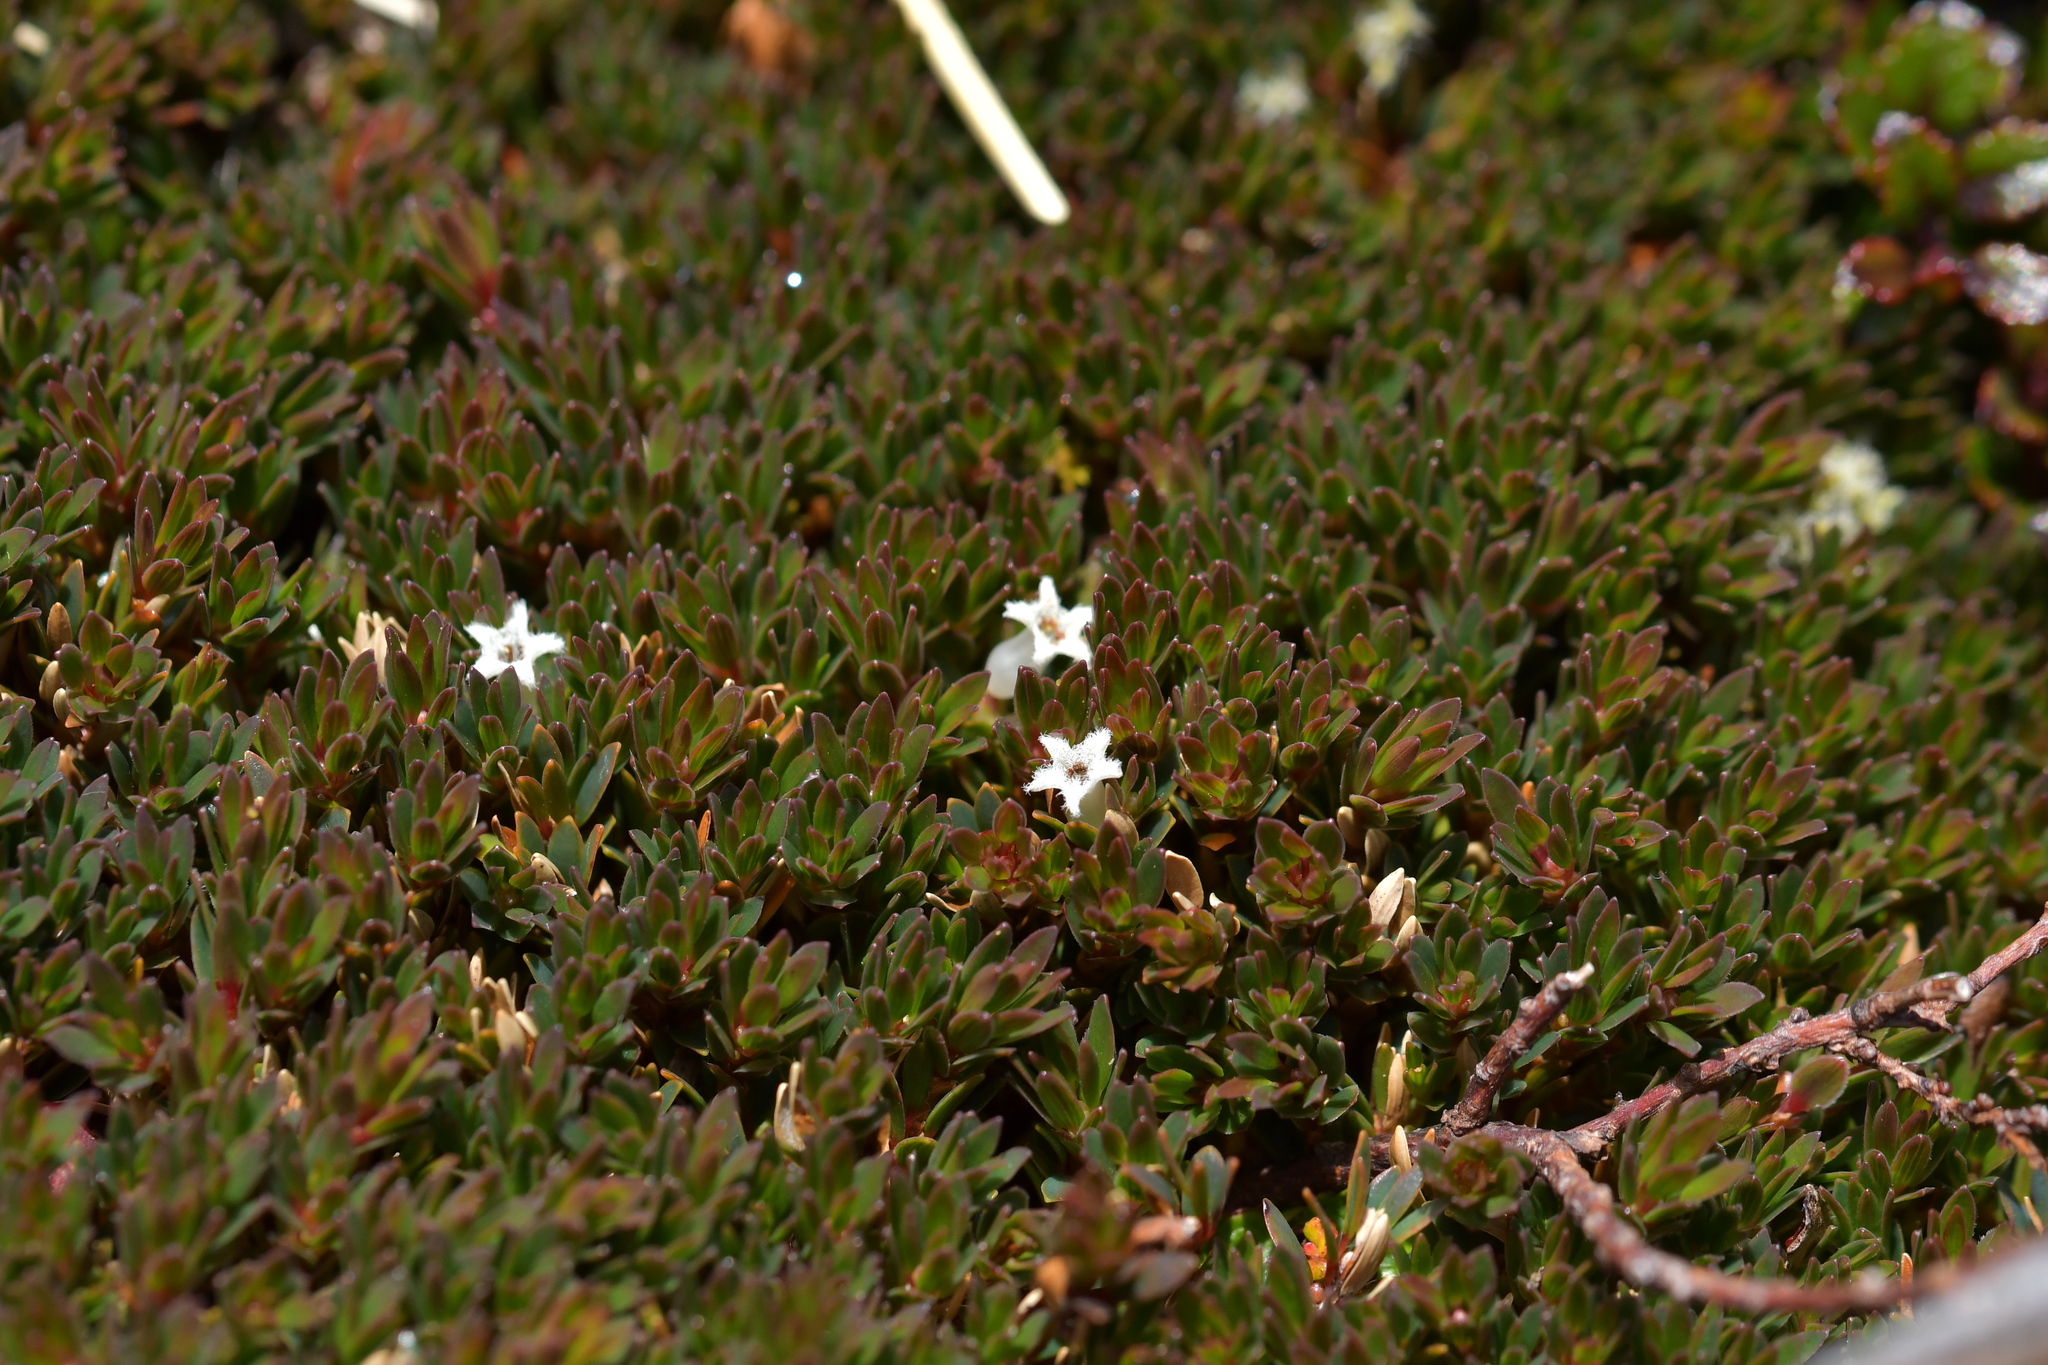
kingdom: Plantae
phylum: Tracheophyta
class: Magnoliopsida
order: Ericales
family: Ericaceae
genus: Pentachondra
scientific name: Pentachondra pumila
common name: Carpet-heath
